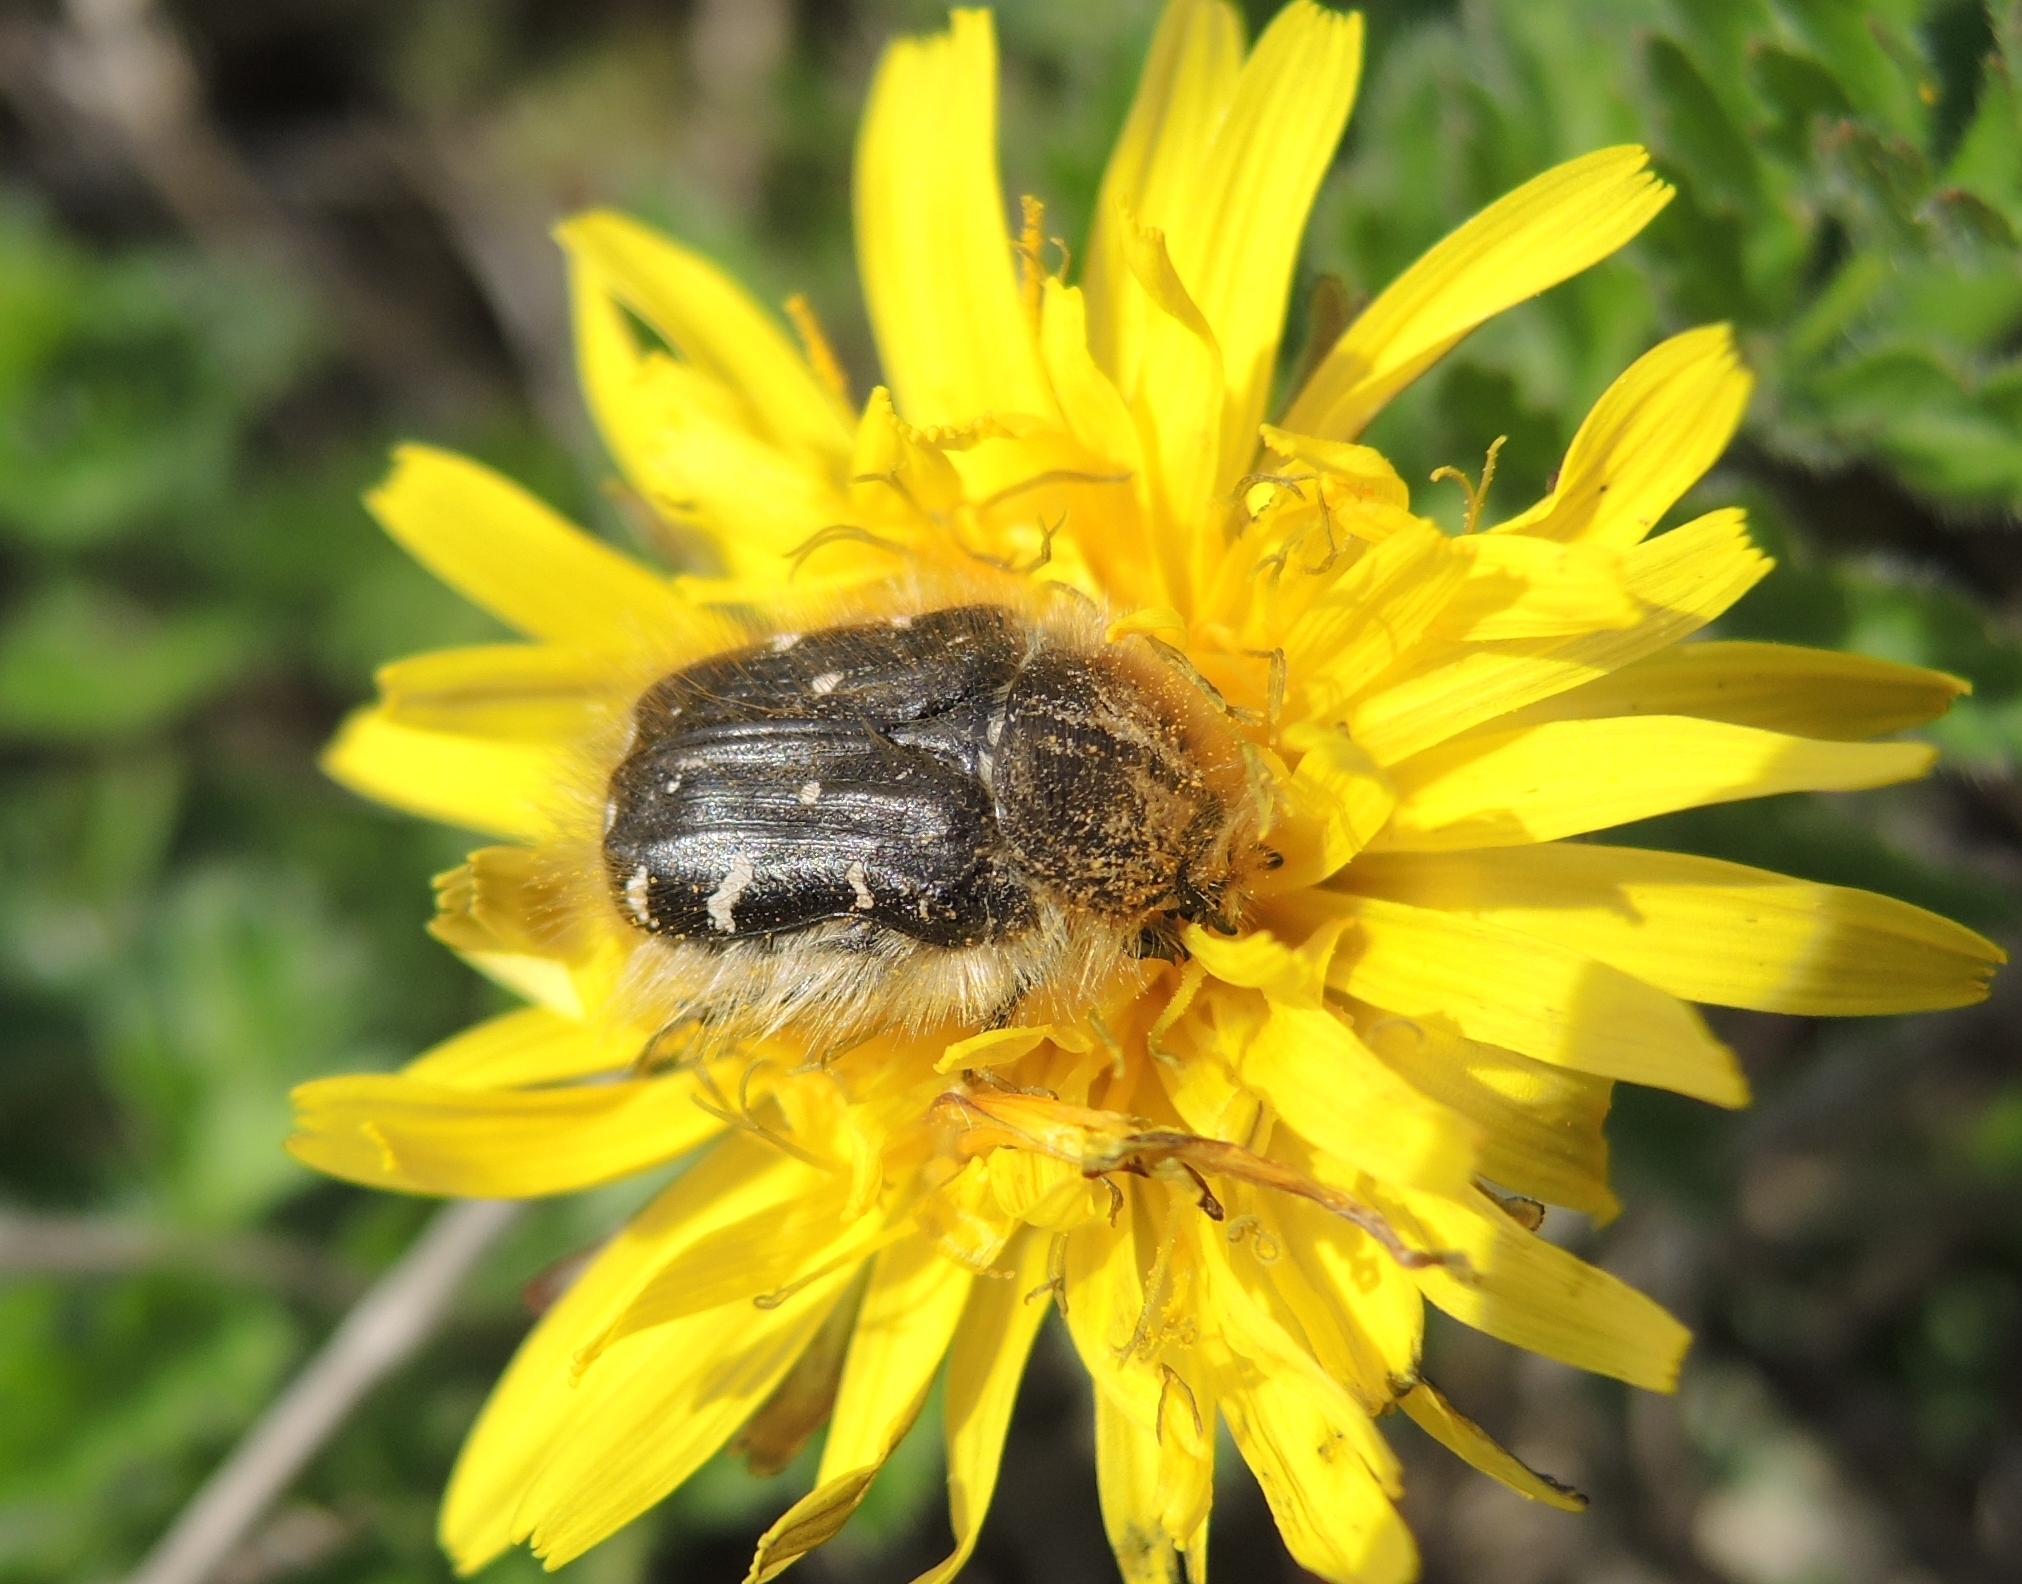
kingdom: Animalia
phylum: Arthropoda
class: Insecta
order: Coleoptera
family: Scarabaeidae
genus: Tropinota
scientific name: Tropinota hirta
